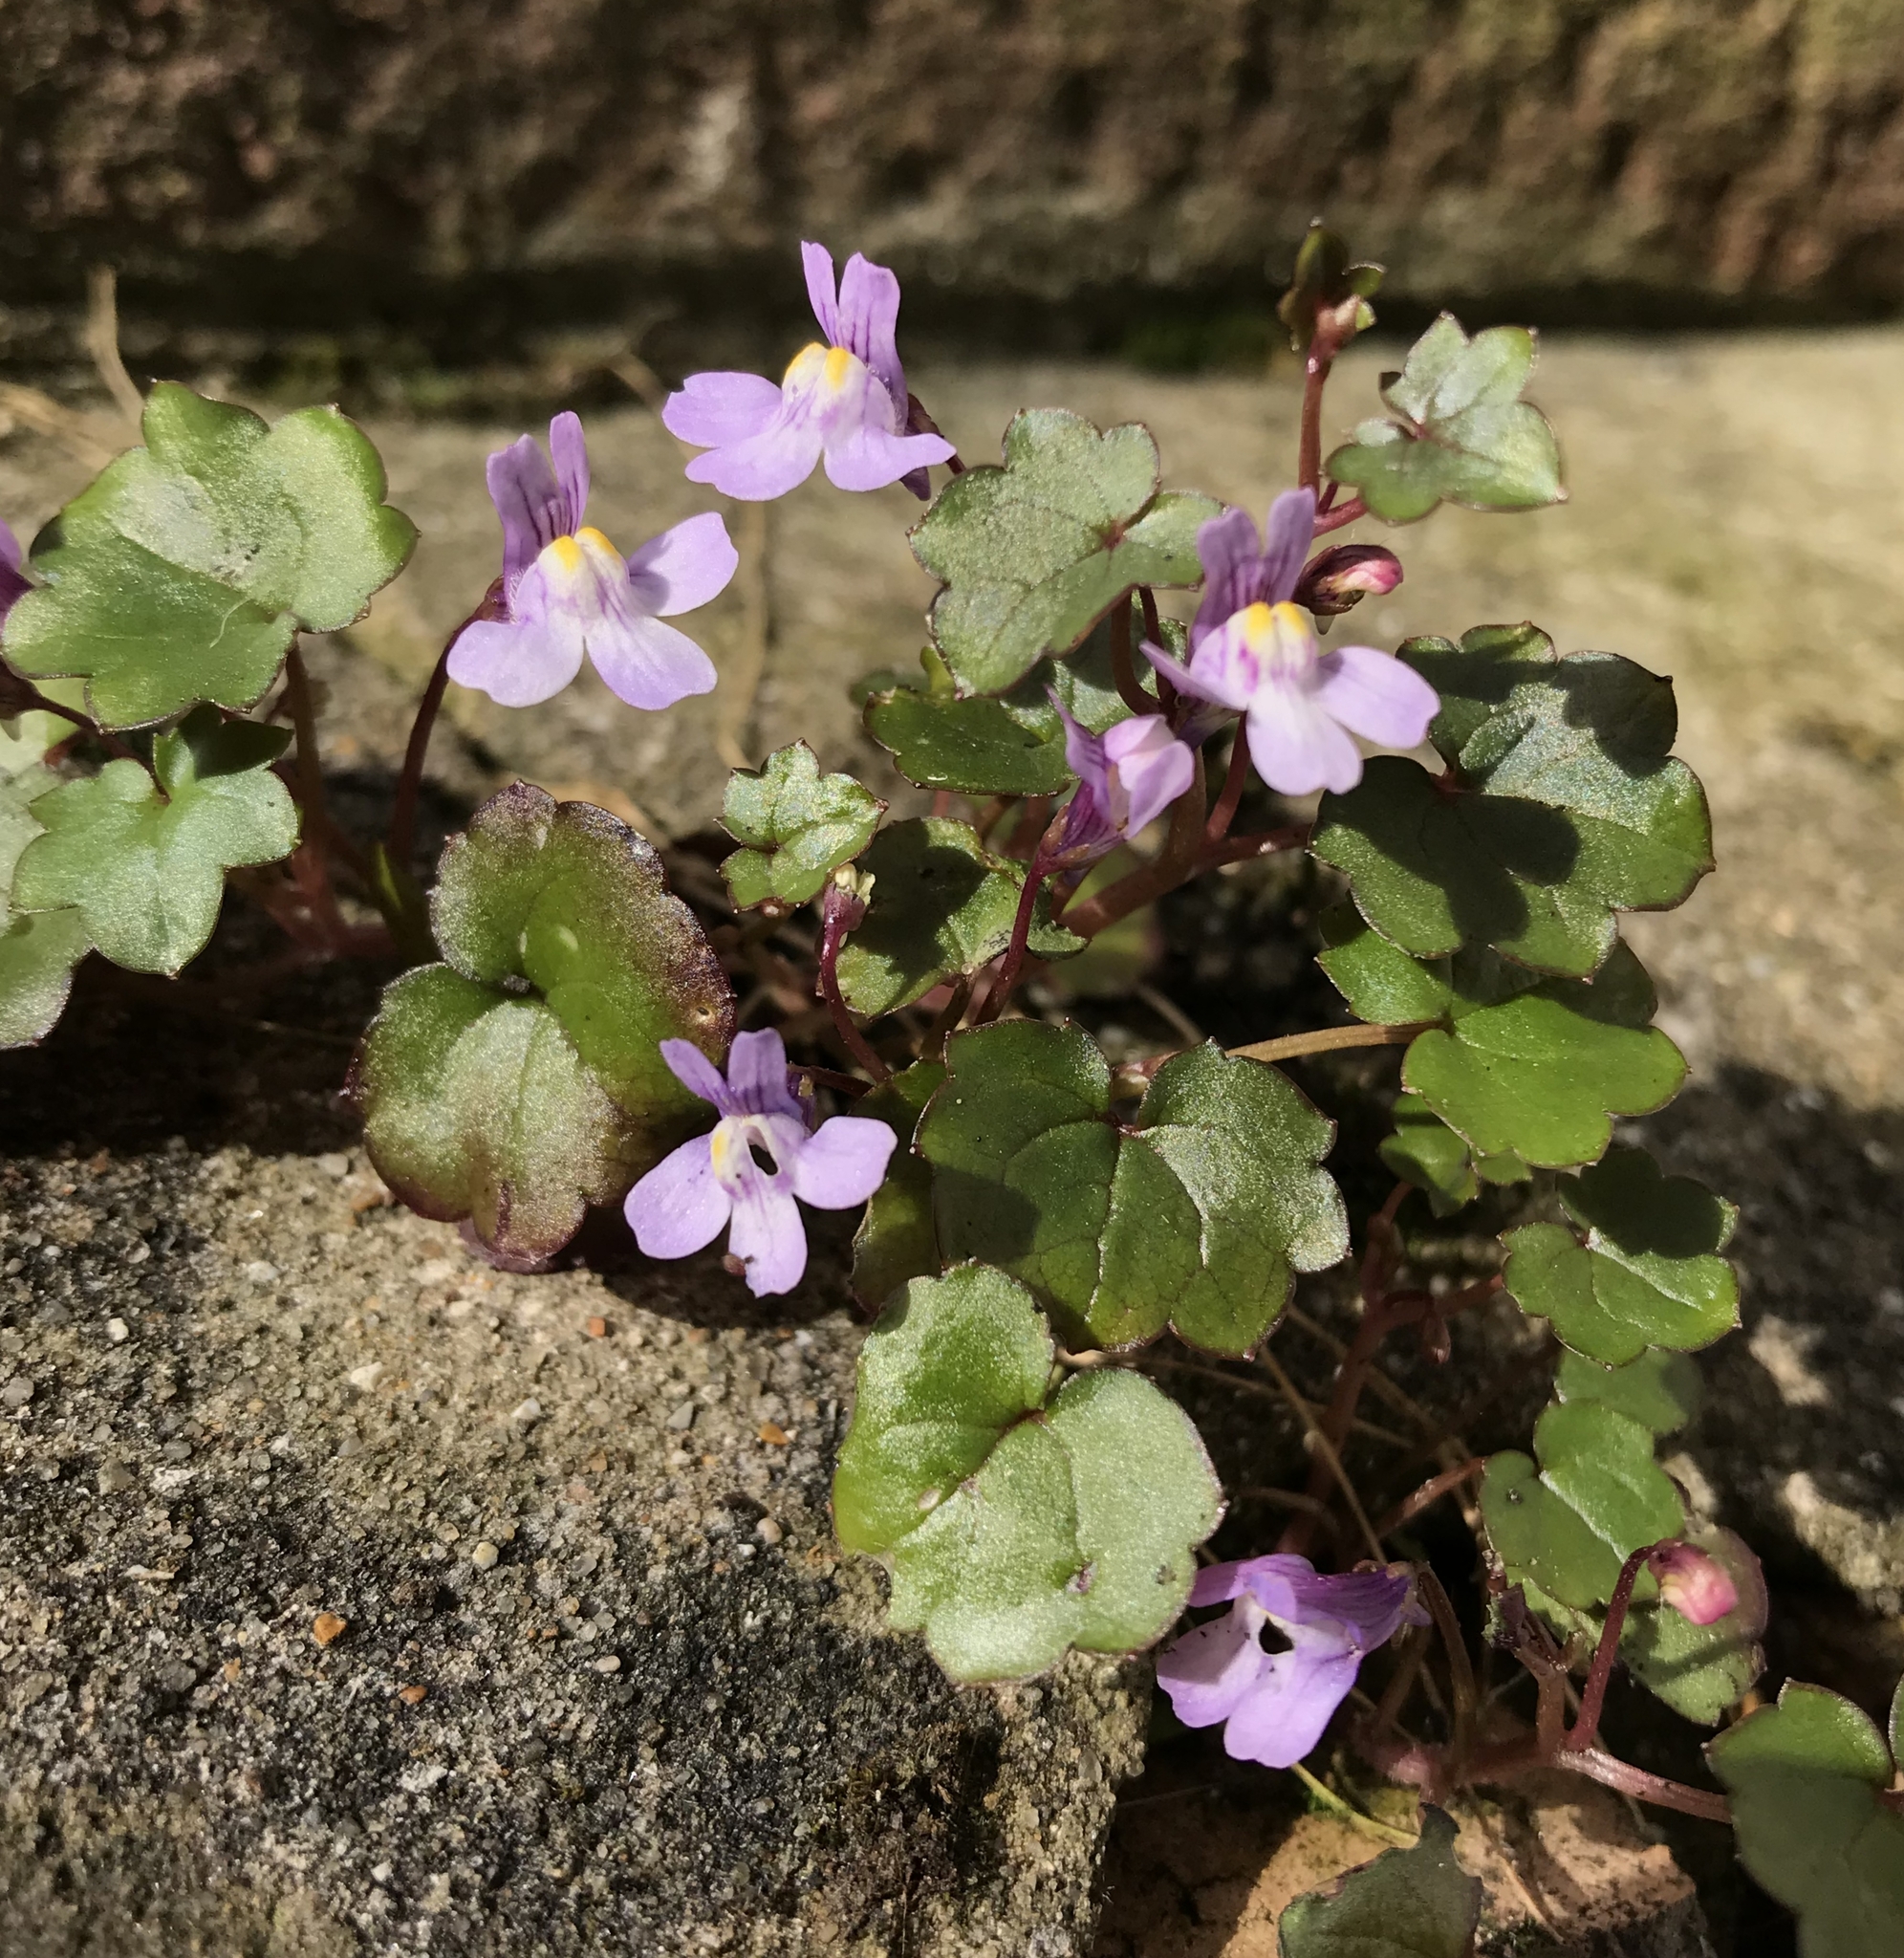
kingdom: Plantae
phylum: Tracheophyta
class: Magnoliopsida
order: Lamiales
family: Plantaginaceae
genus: Cymbalaria
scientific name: Cymbalaria muralis
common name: Ivy-leaved toadflax
